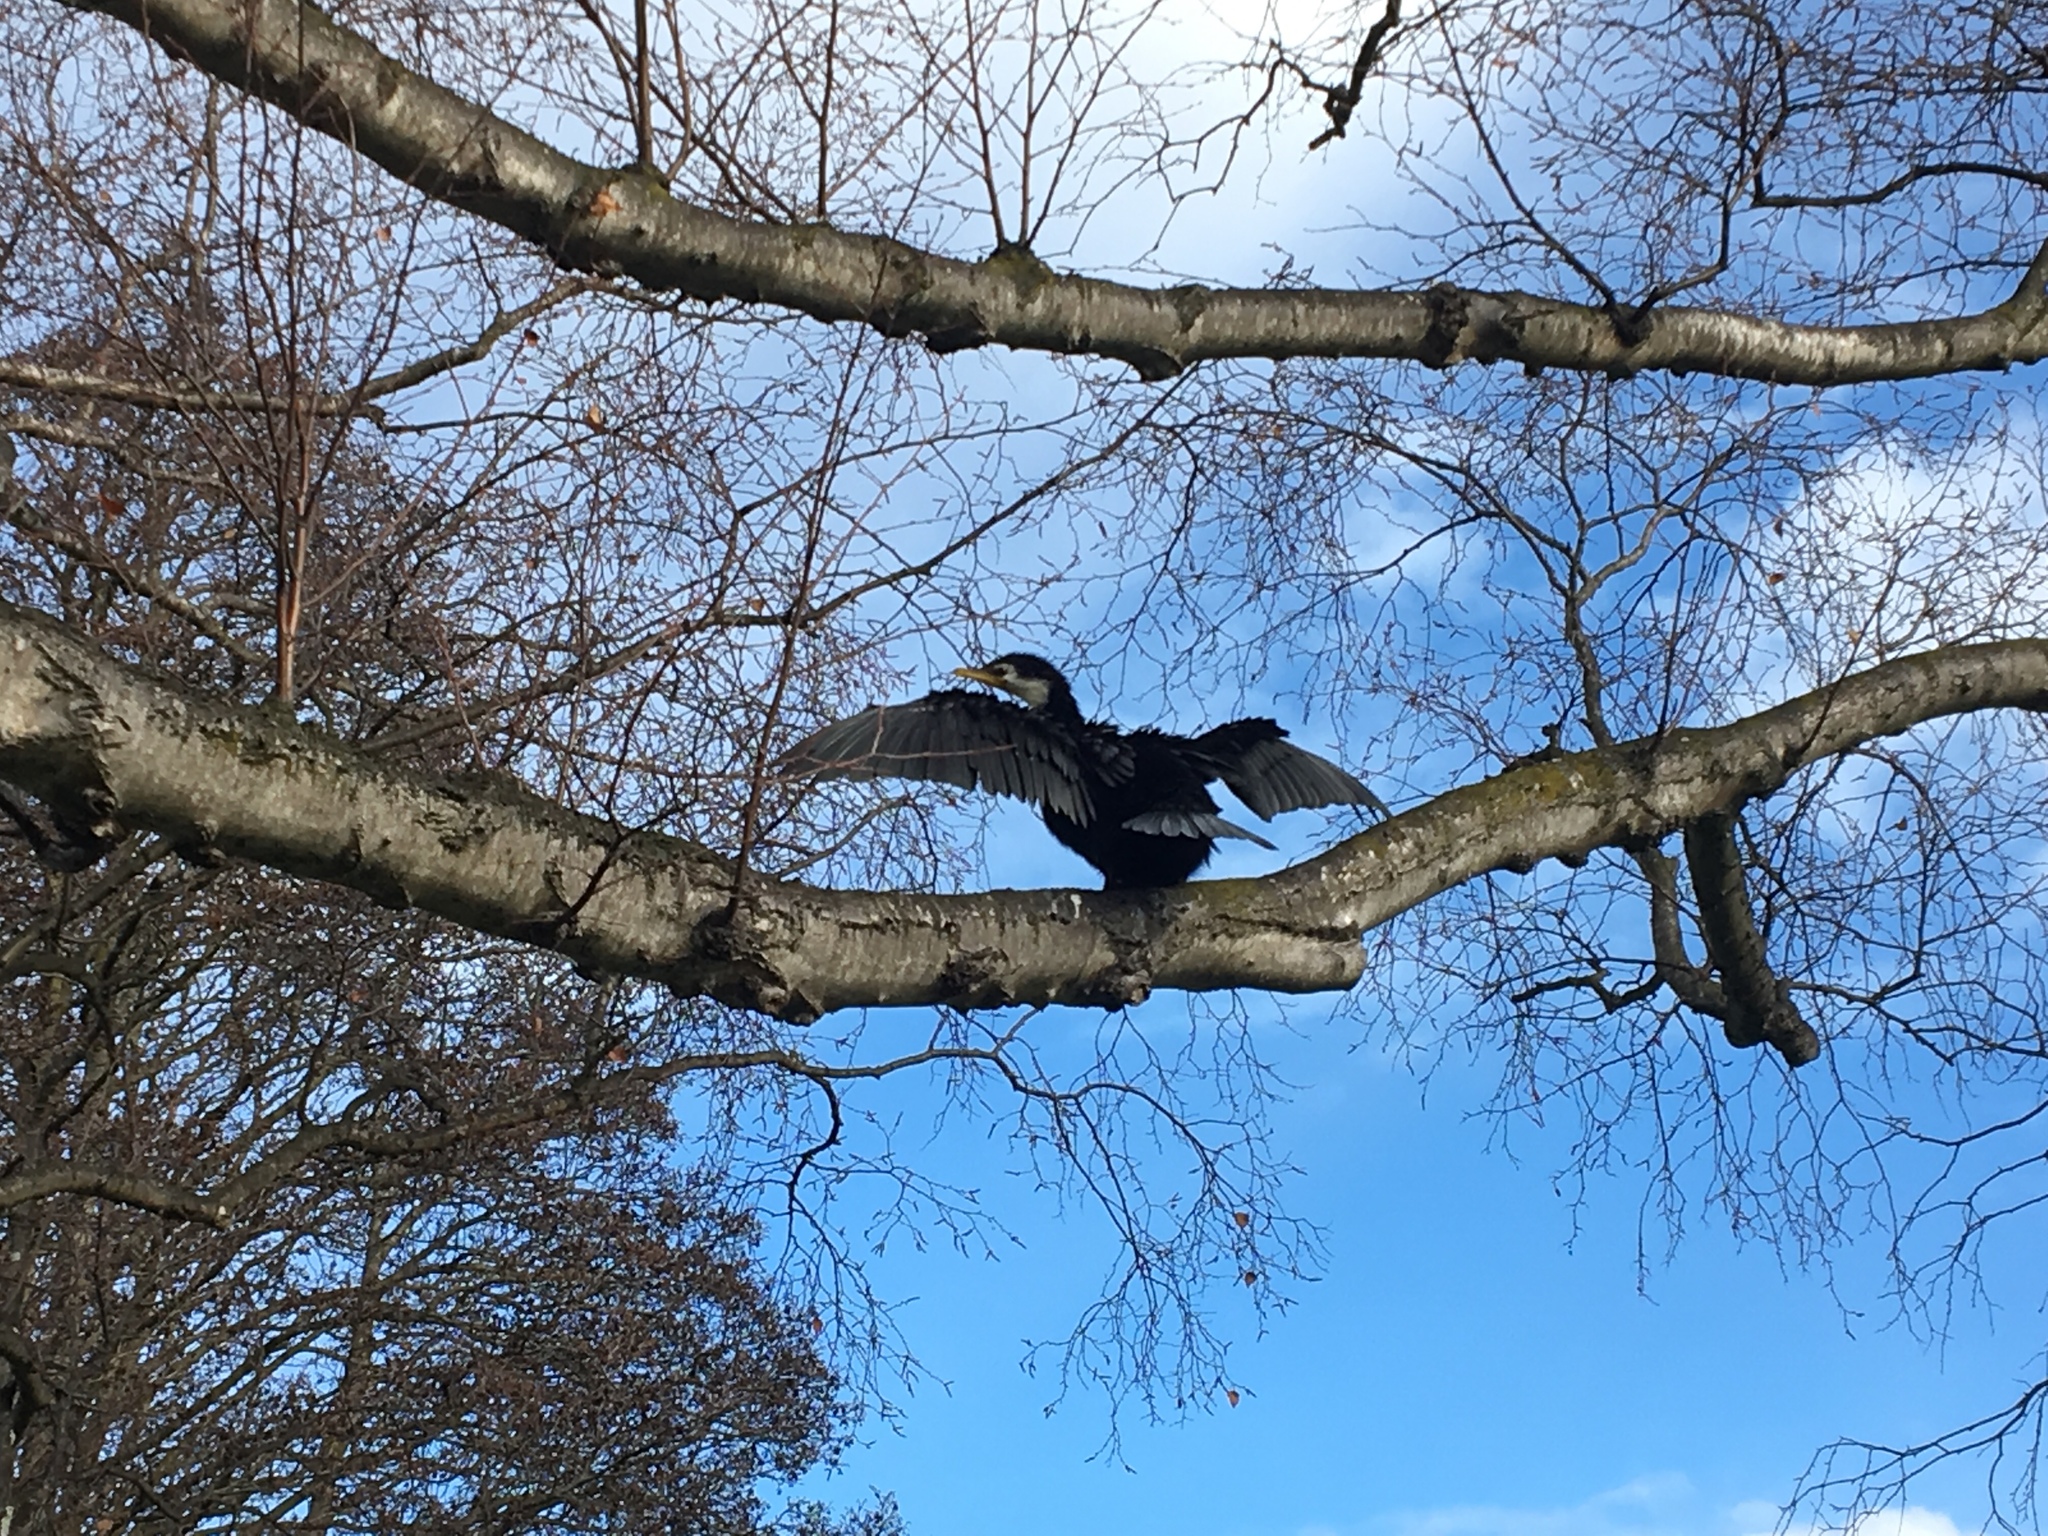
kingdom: Animalia
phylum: Chordata
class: Aves
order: Suliformes
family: Phalacrocoracidae
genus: Microcarbo
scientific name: Microcarbo melanoleucos
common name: Little pied cormorant
